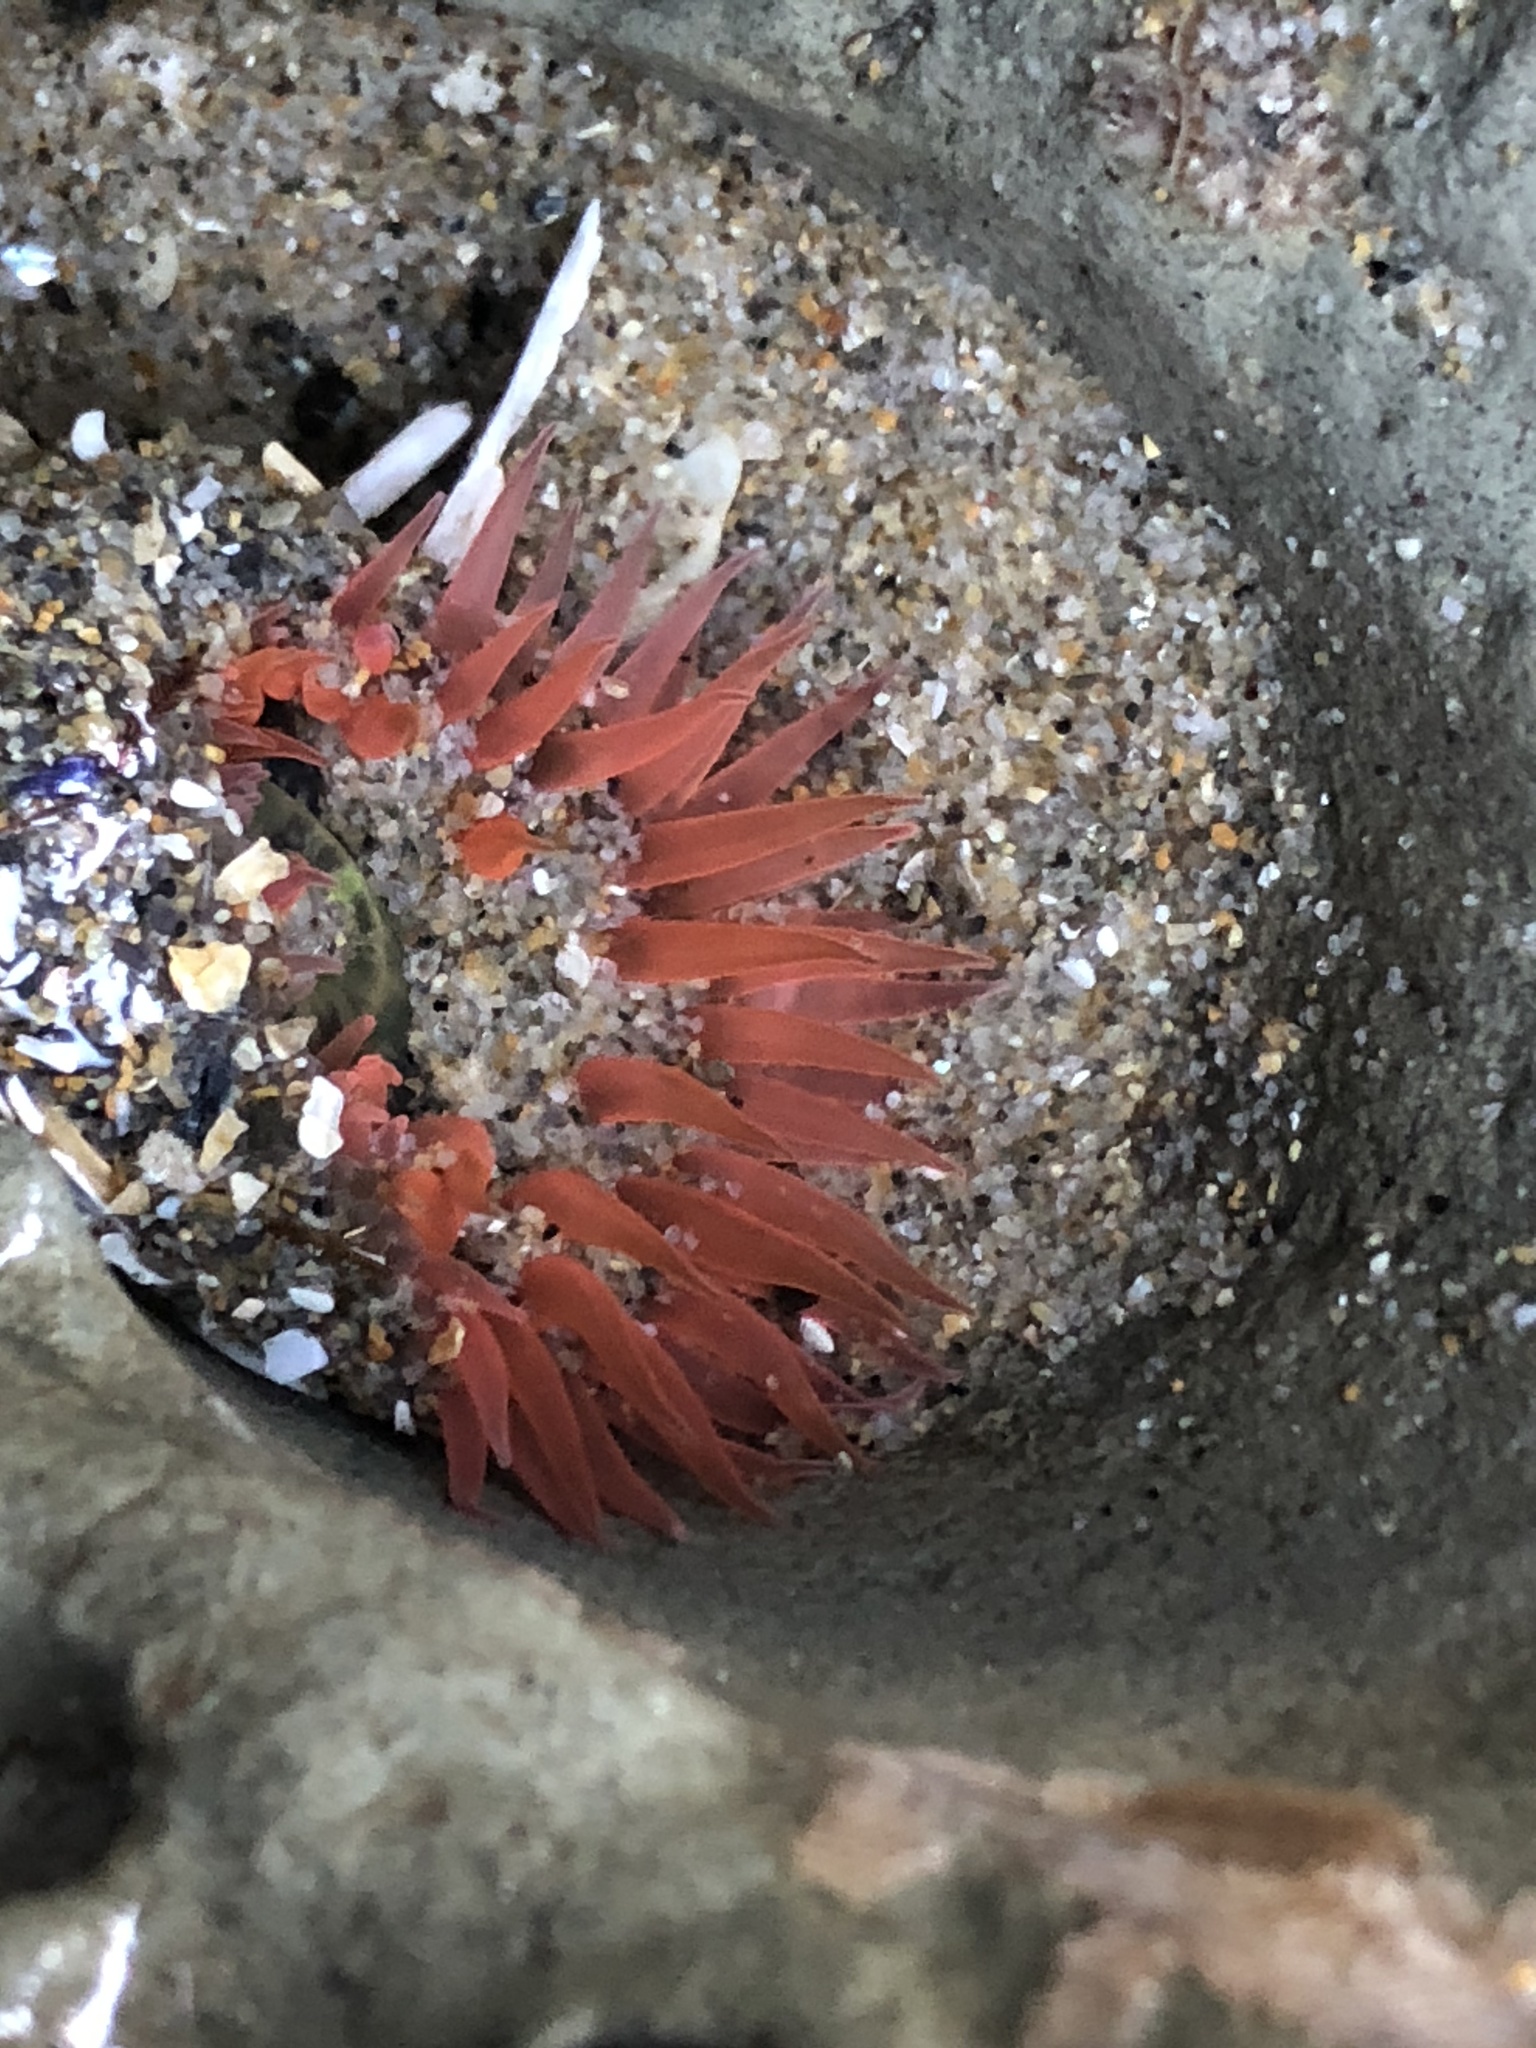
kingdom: Animalia
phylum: Cnidaria
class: Anthozoa
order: Actiniaria
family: Actiniidae
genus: Anthopleura
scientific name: Anthopleura artemisia
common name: Buried sea anemone
